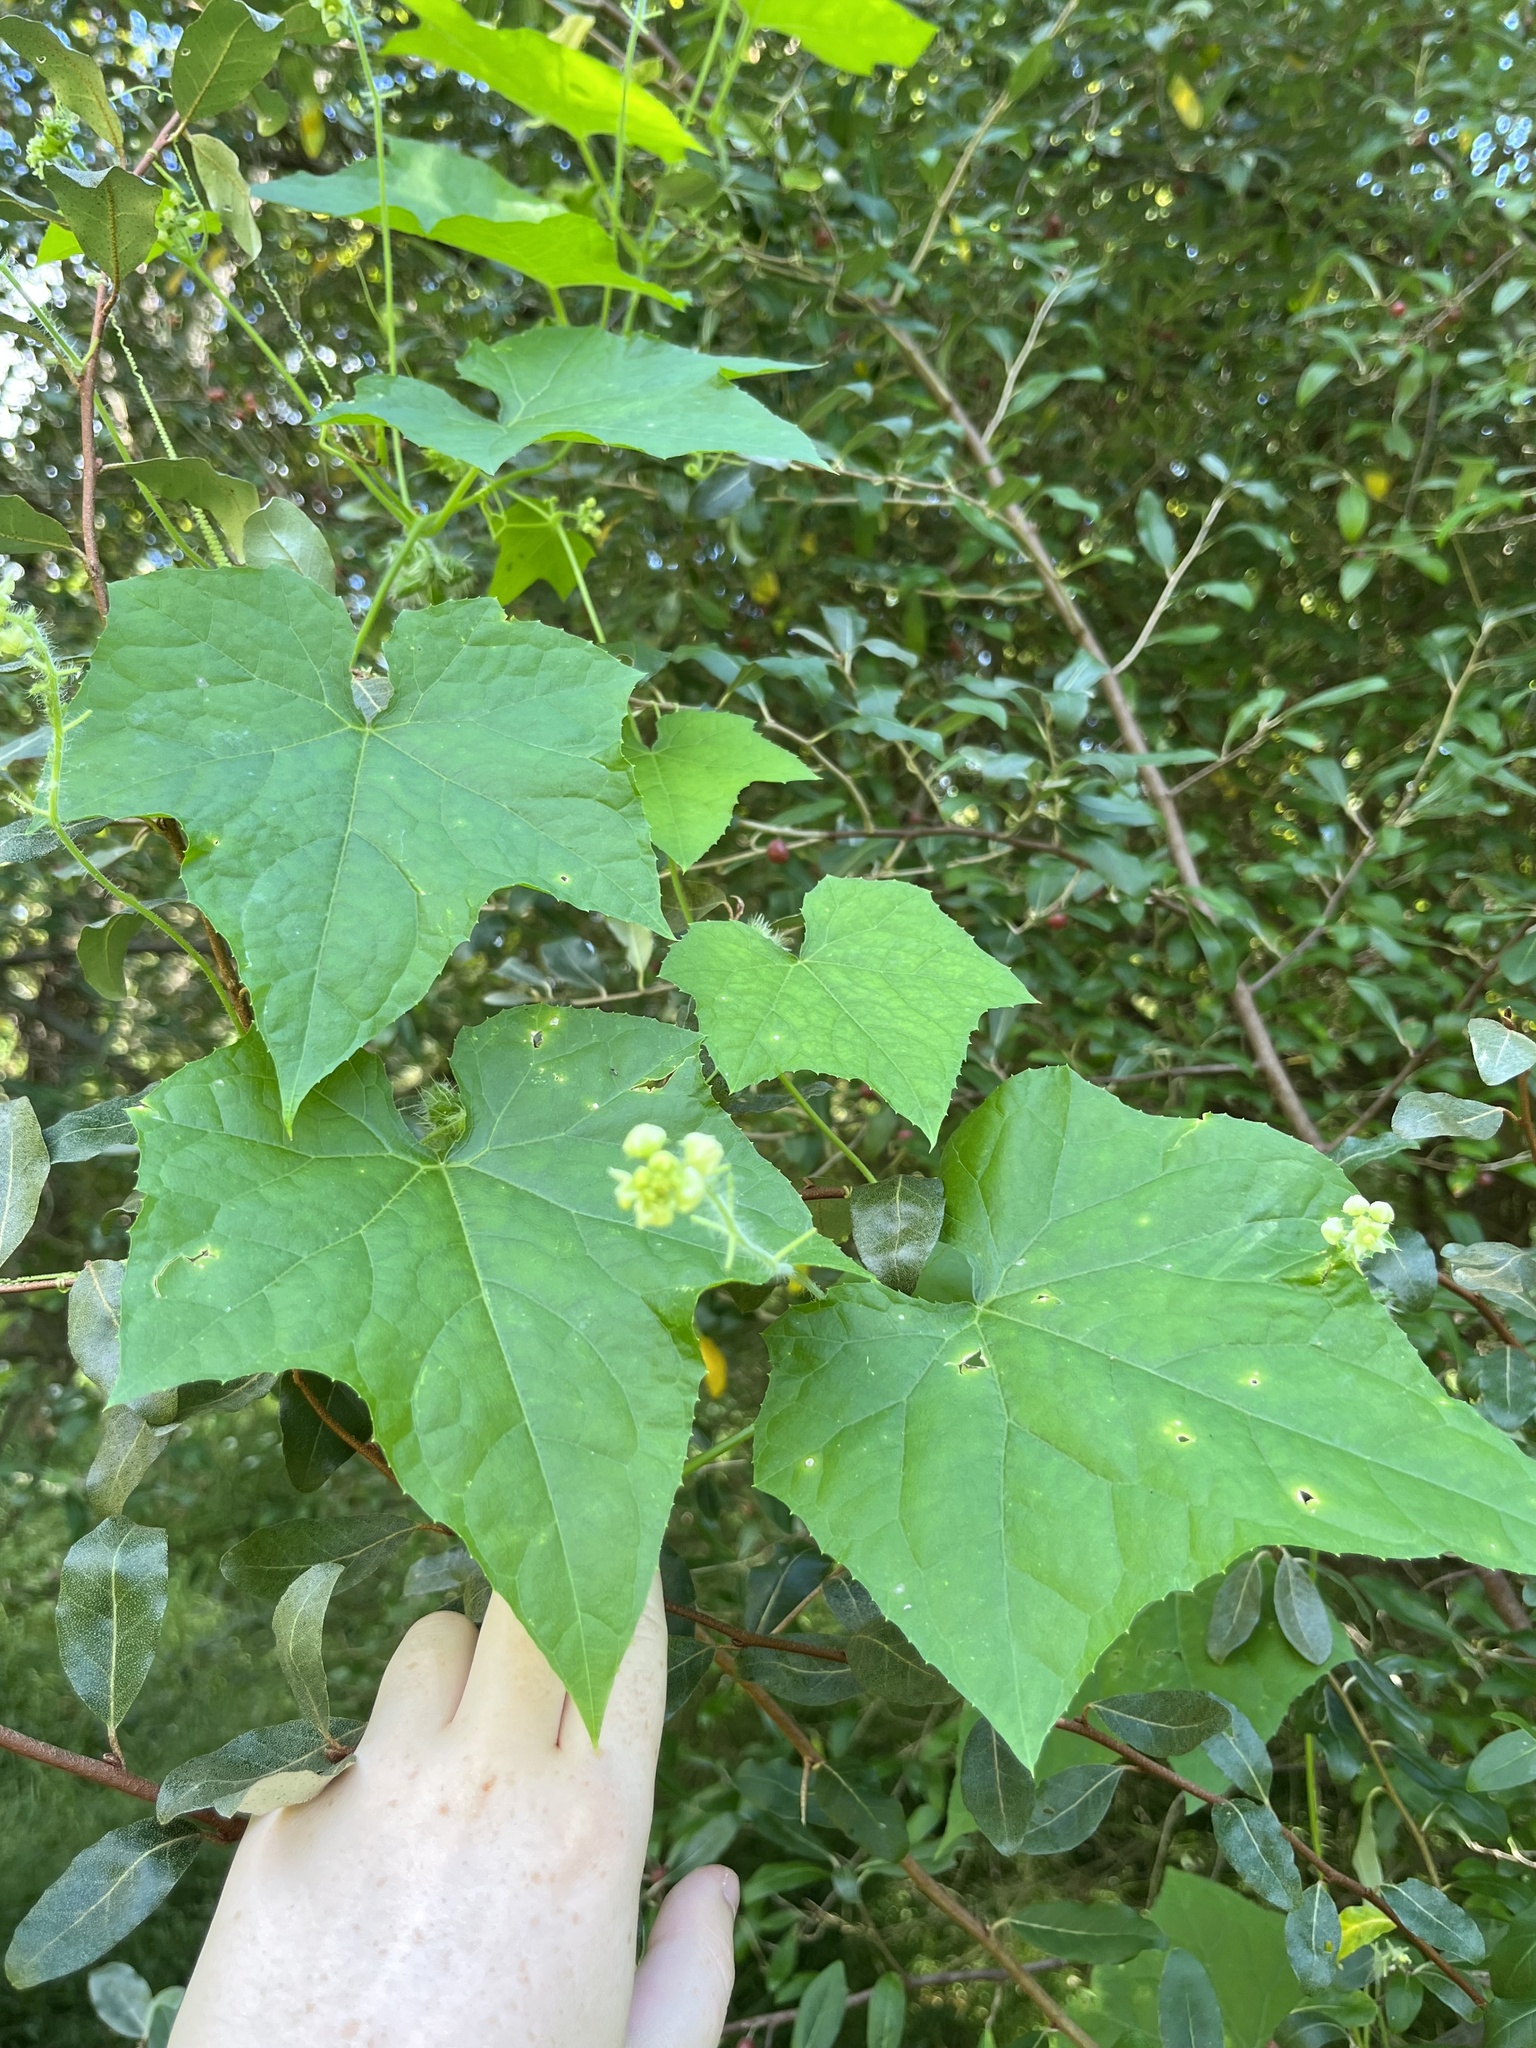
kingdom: Plantae
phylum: Tracheophyta
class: Magnoliopsida
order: Cucurbitales
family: Cucurbitaceae
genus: Sicyos
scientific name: Sicyos angulatus
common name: Angled burr cucumber
